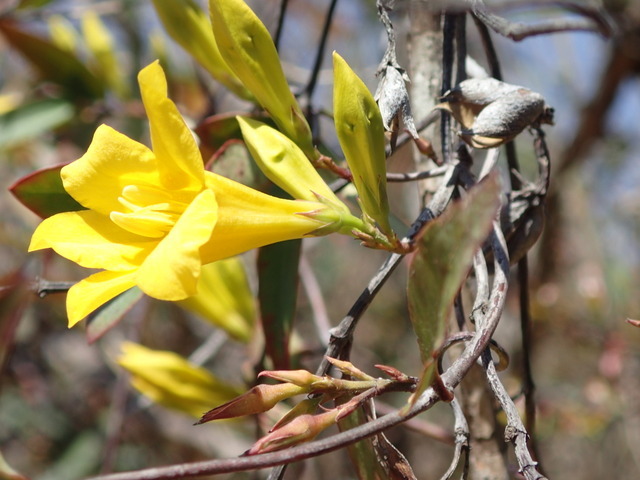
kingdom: Plantae
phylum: Tracheophyta
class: Magnoliopsida
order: Gentianales
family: Gelsemiaceae
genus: Gelsemium
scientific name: Gelsemium rankinii
